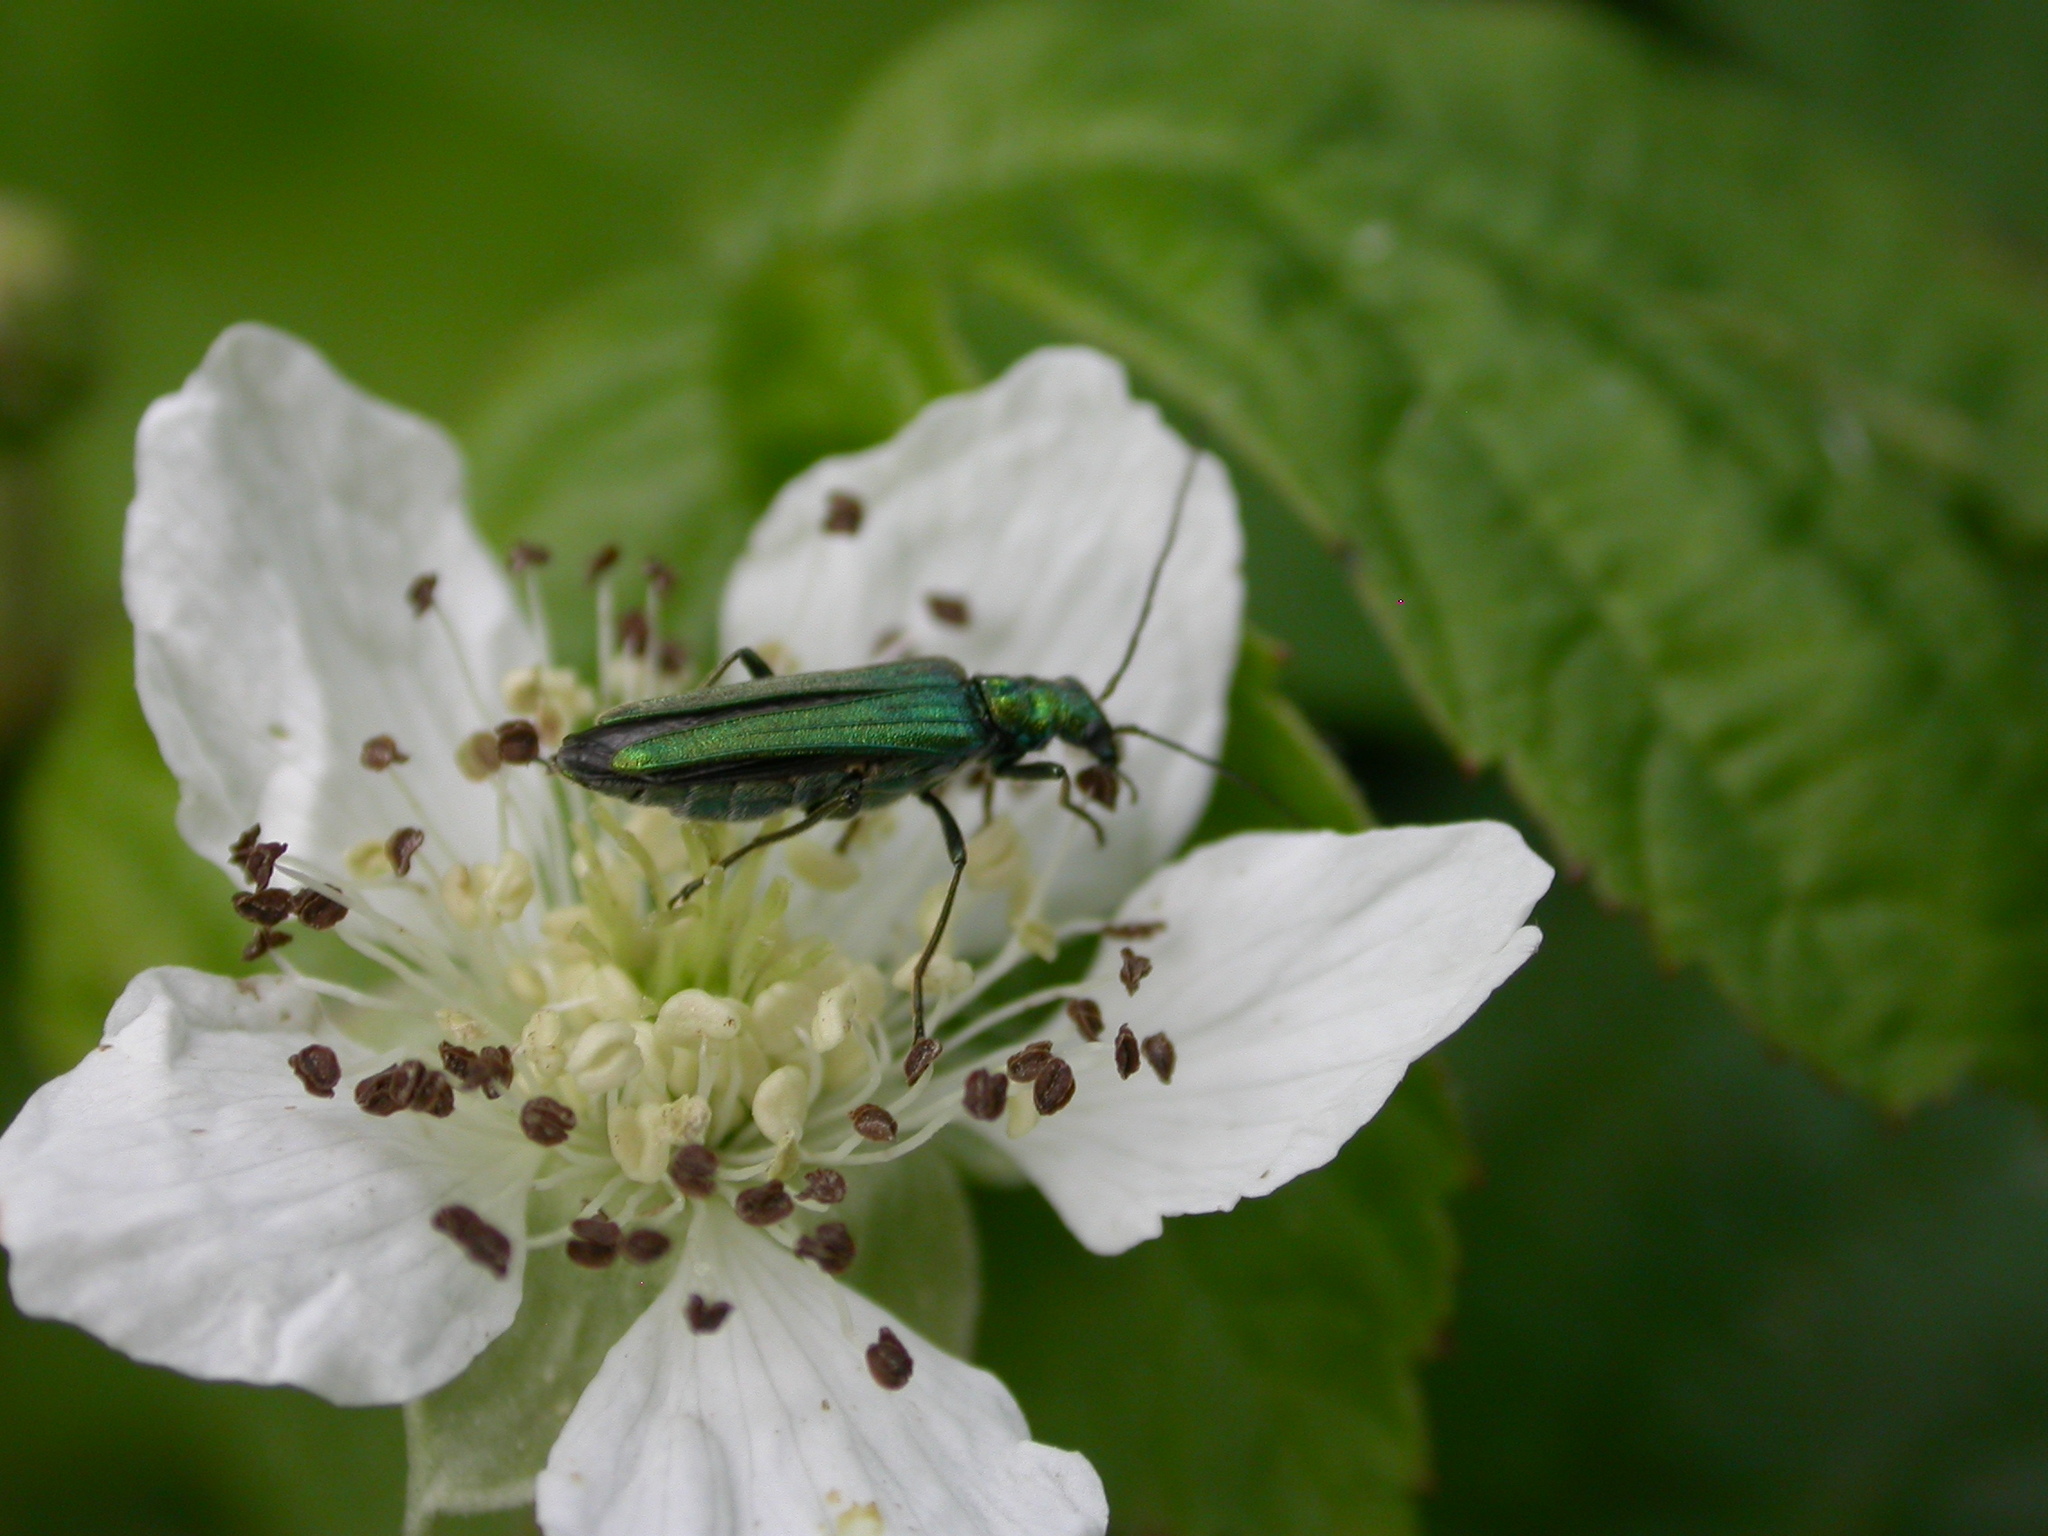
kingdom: Animalia
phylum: Arthropoda
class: Insecta
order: Coleoptera
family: Oedemeridae
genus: Oedemera
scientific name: Oedemera nobilis
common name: Swollen-thighed beetle
